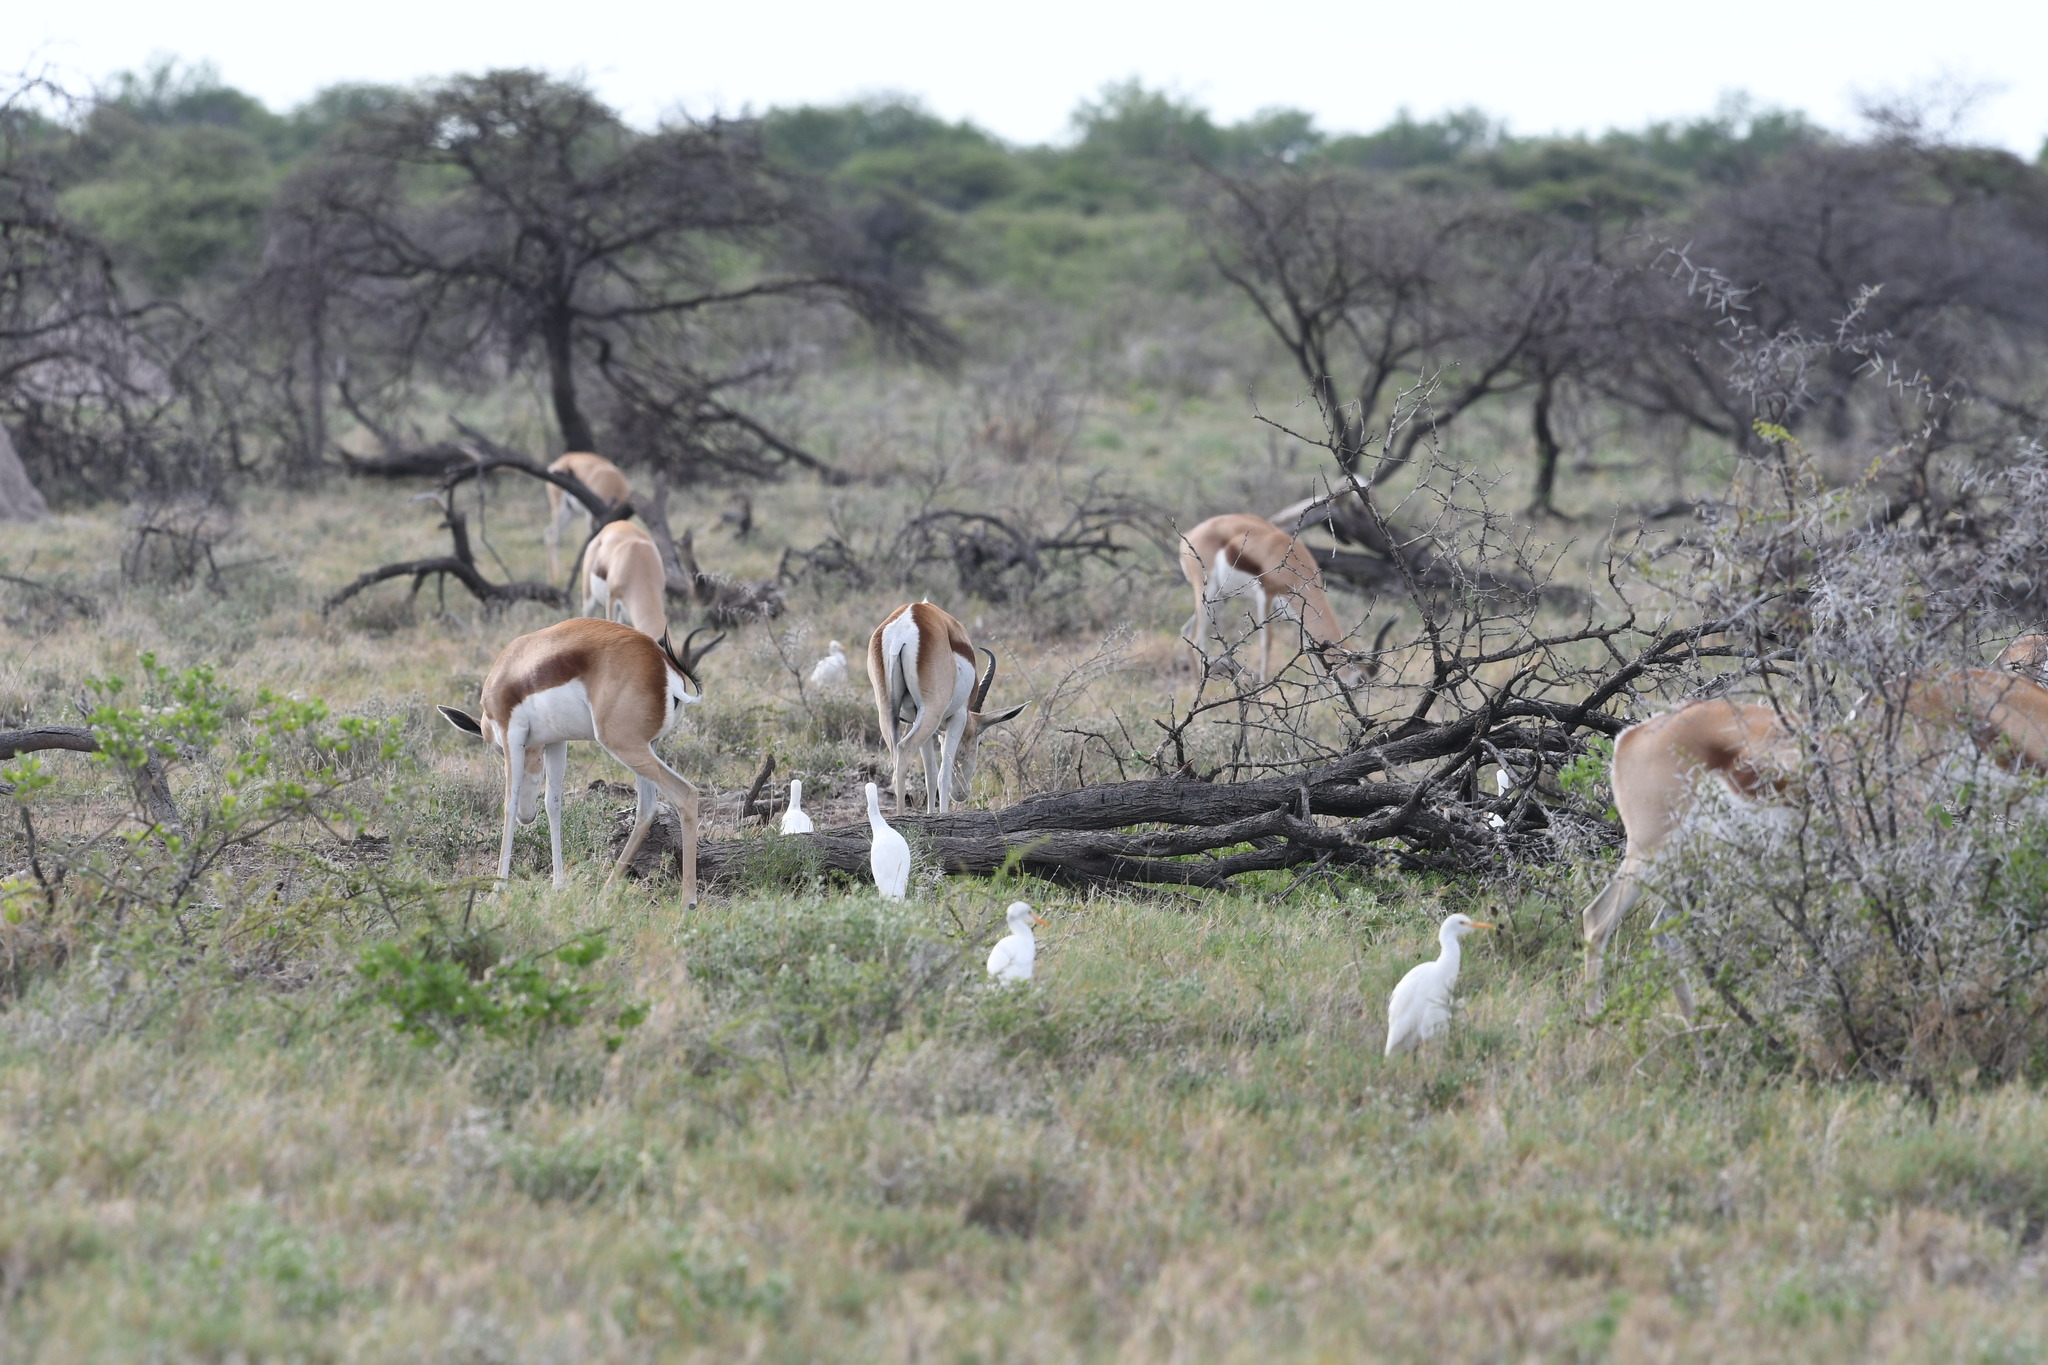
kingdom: Animalia
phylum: Chordata
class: Aves
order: Pelecaniformes
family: Ardeidae
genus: Bubulcus
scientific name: Bubulcus ibis
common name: Cattle egret
